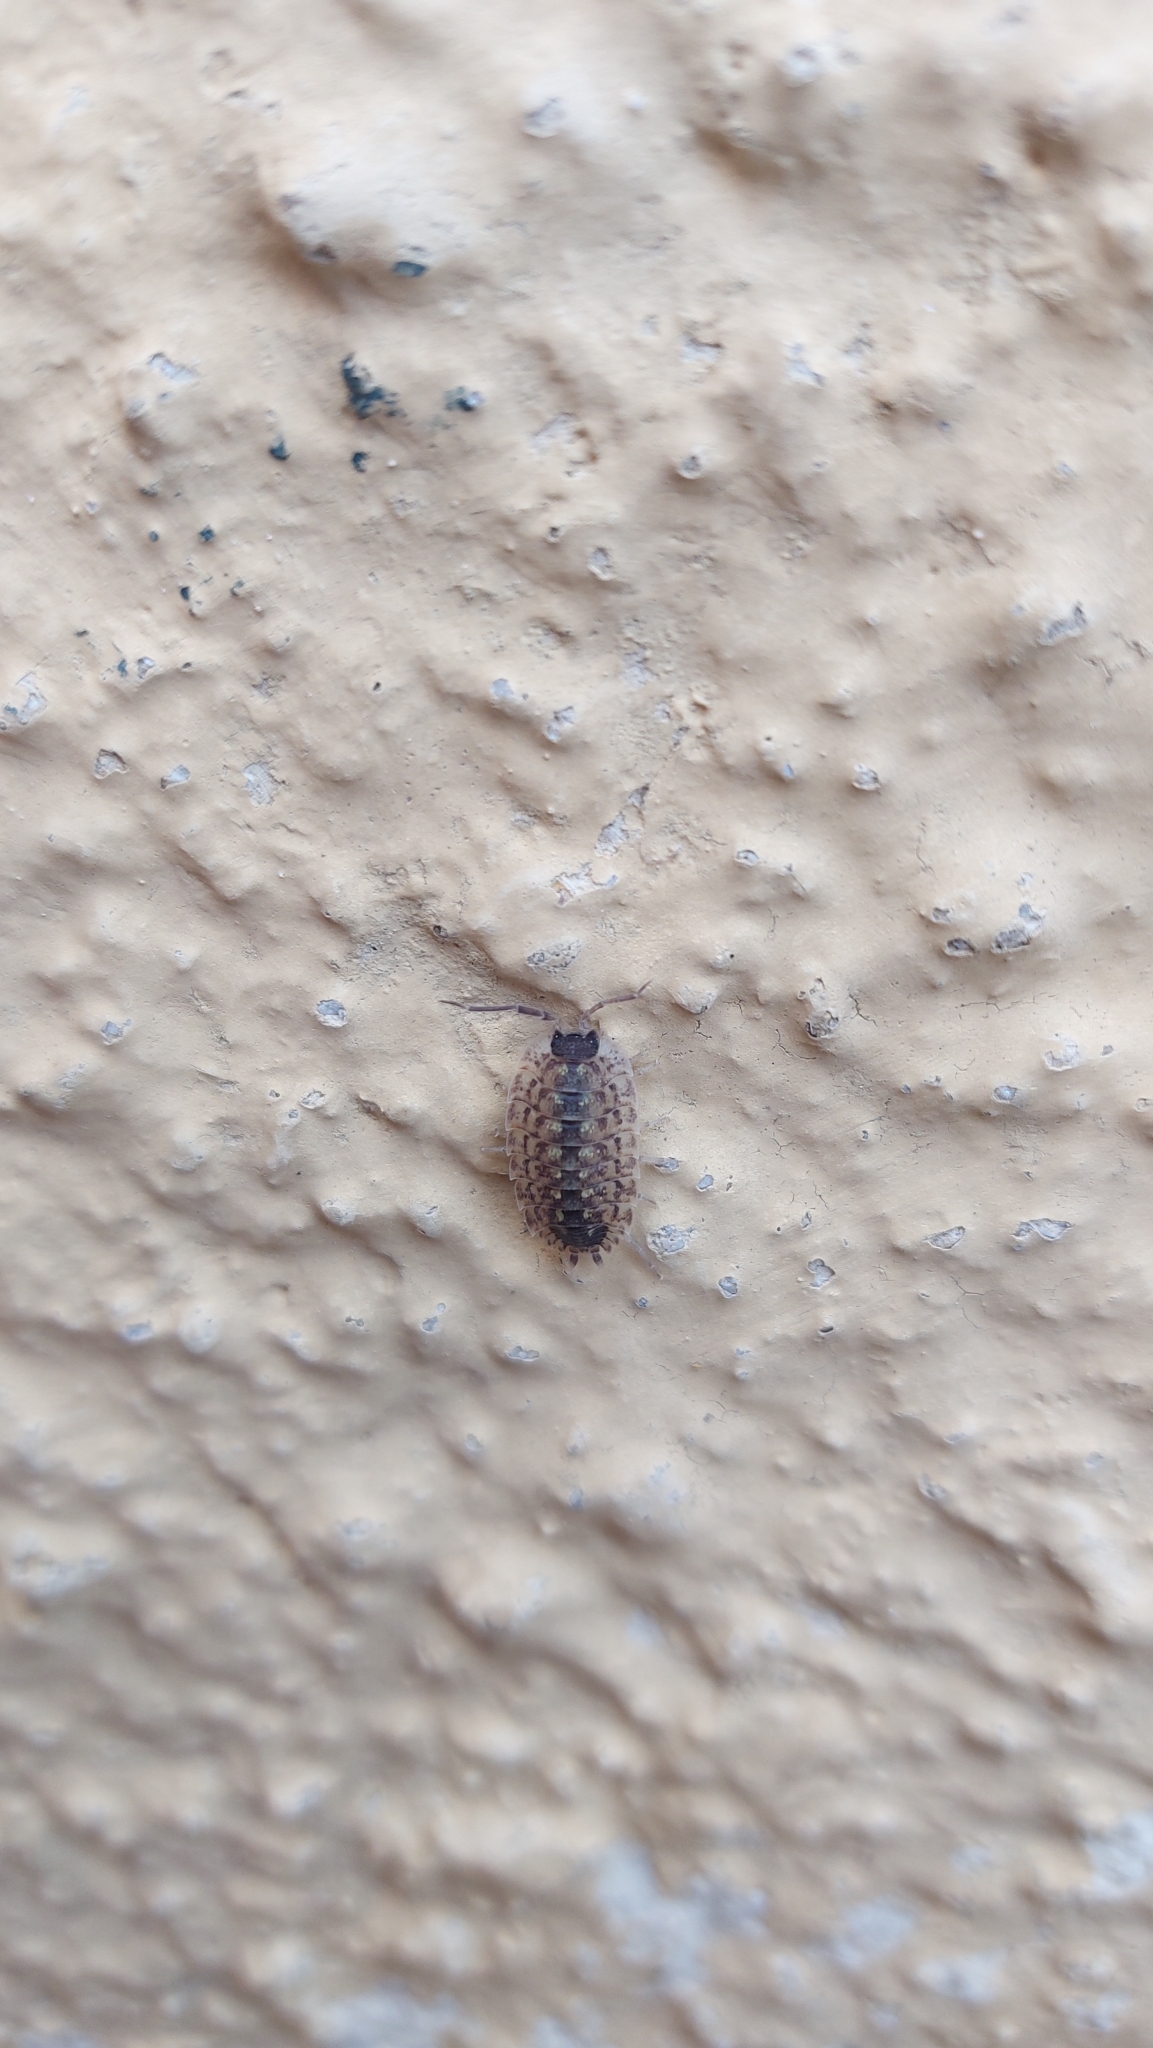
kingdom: Animalia
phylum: Arthropoda
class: Malacostraca
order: Isopoda
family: Porcellionidae
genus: Porcellio
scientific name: Porcellio spinicornis
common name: Painted woodlouse
